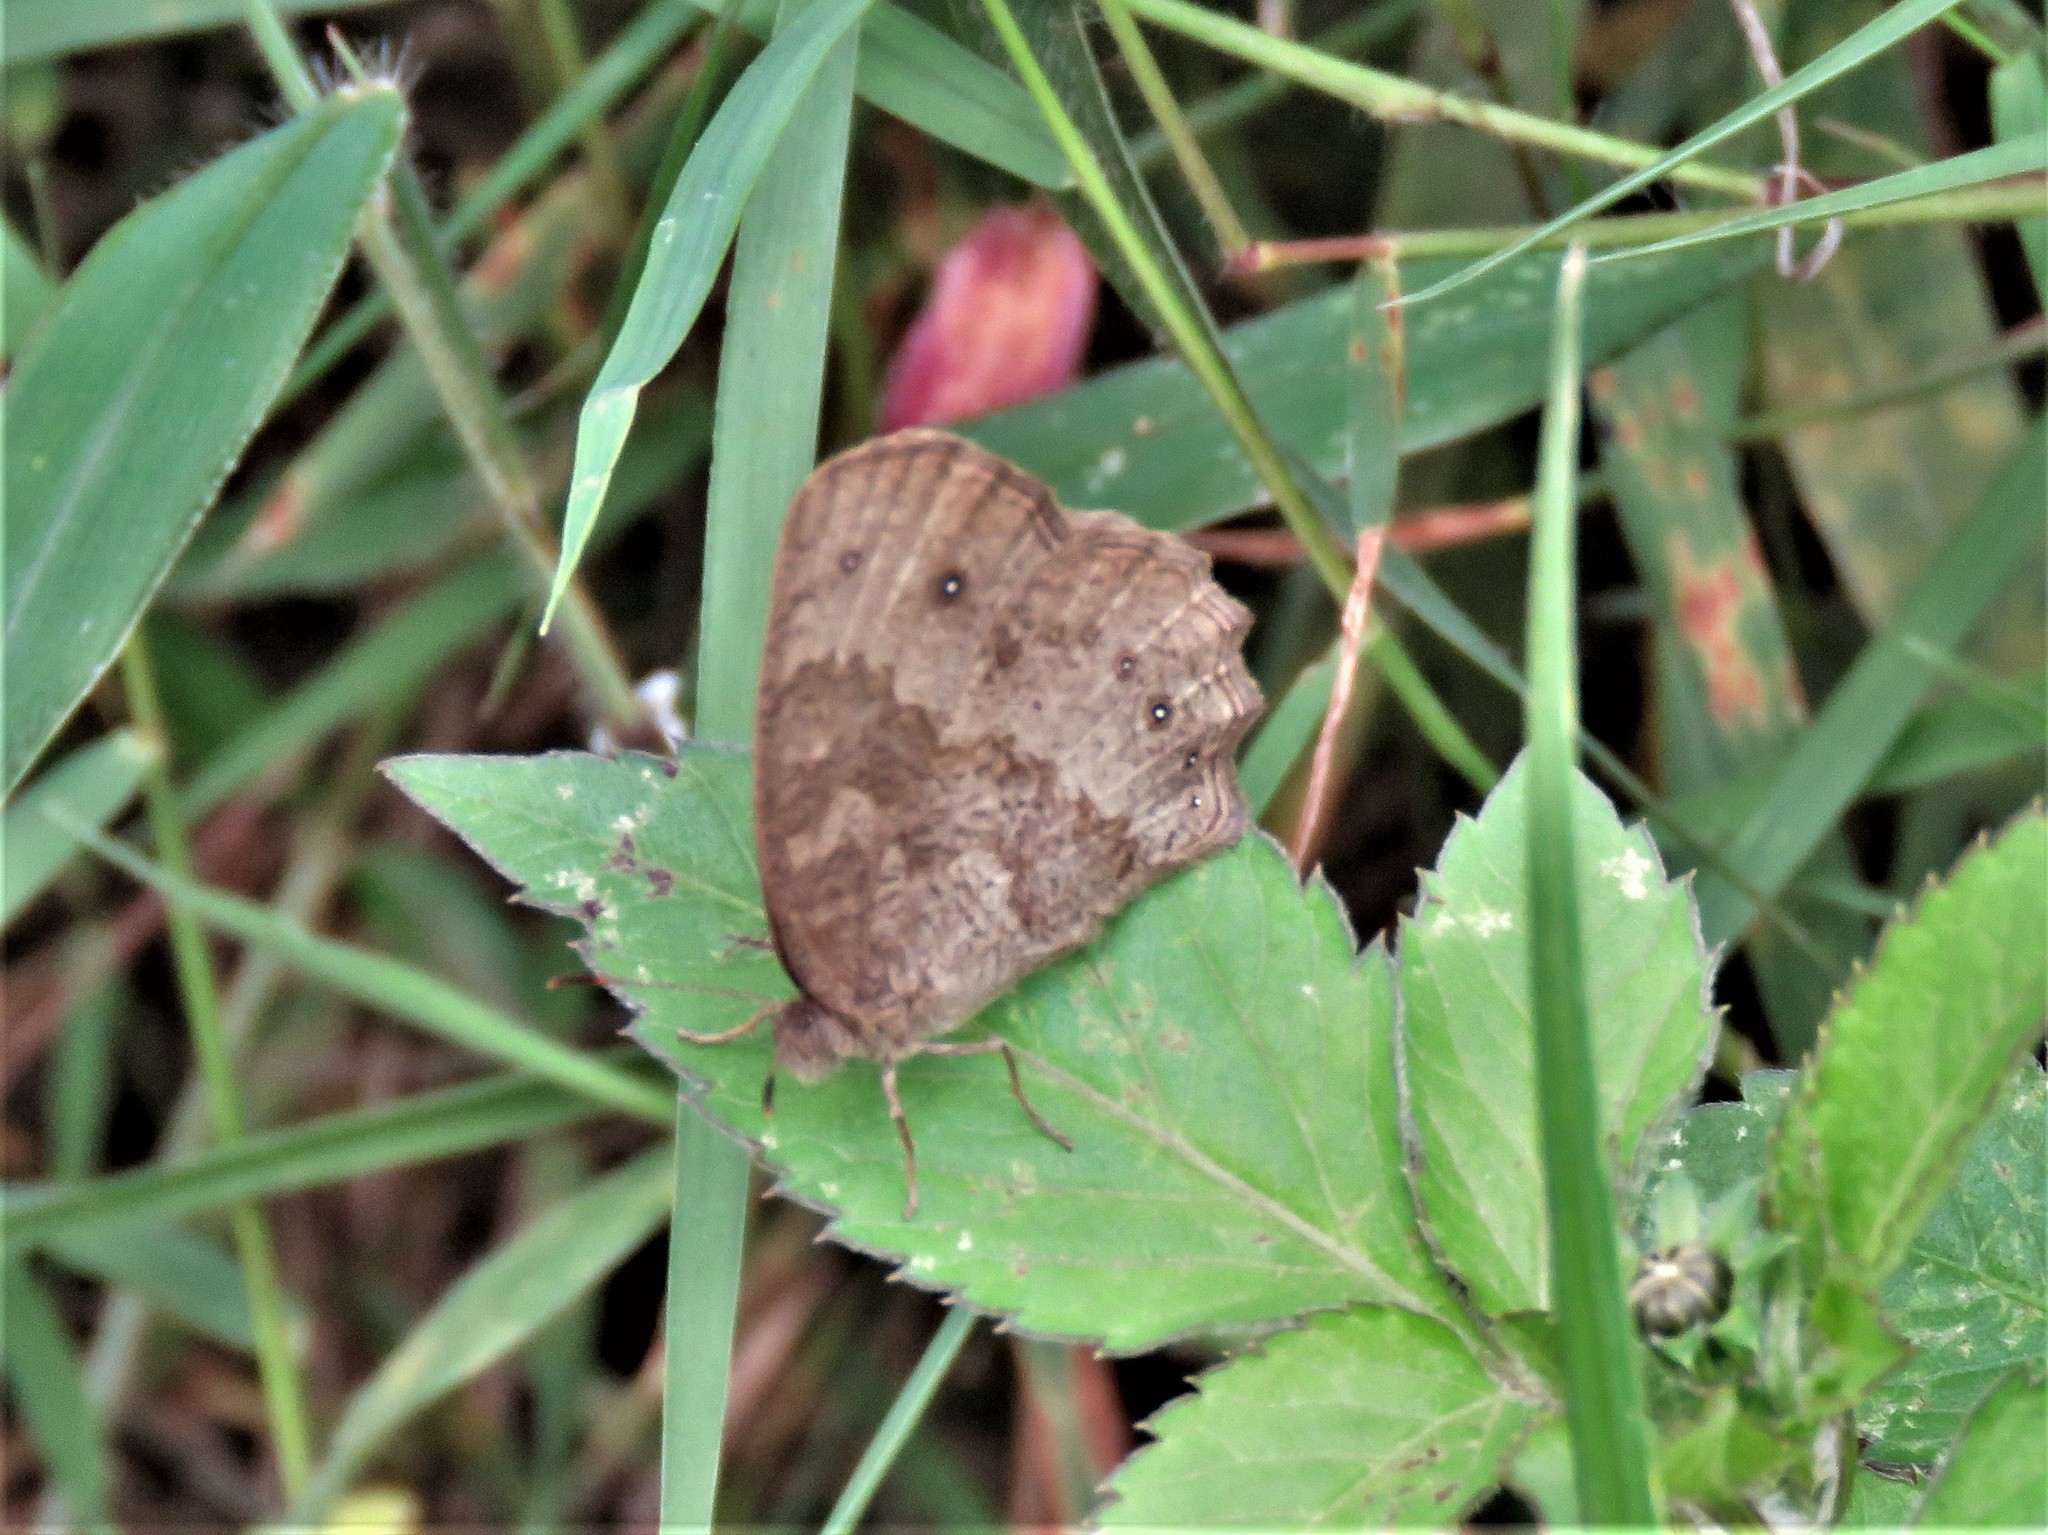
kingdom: Animalia
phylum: Arthropoda
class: Insecta
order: Lepidoptera
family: Nymphalidae
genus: Bicyclus
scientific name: Bicyclus jefferyi
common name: Jeffery's bush-brown
